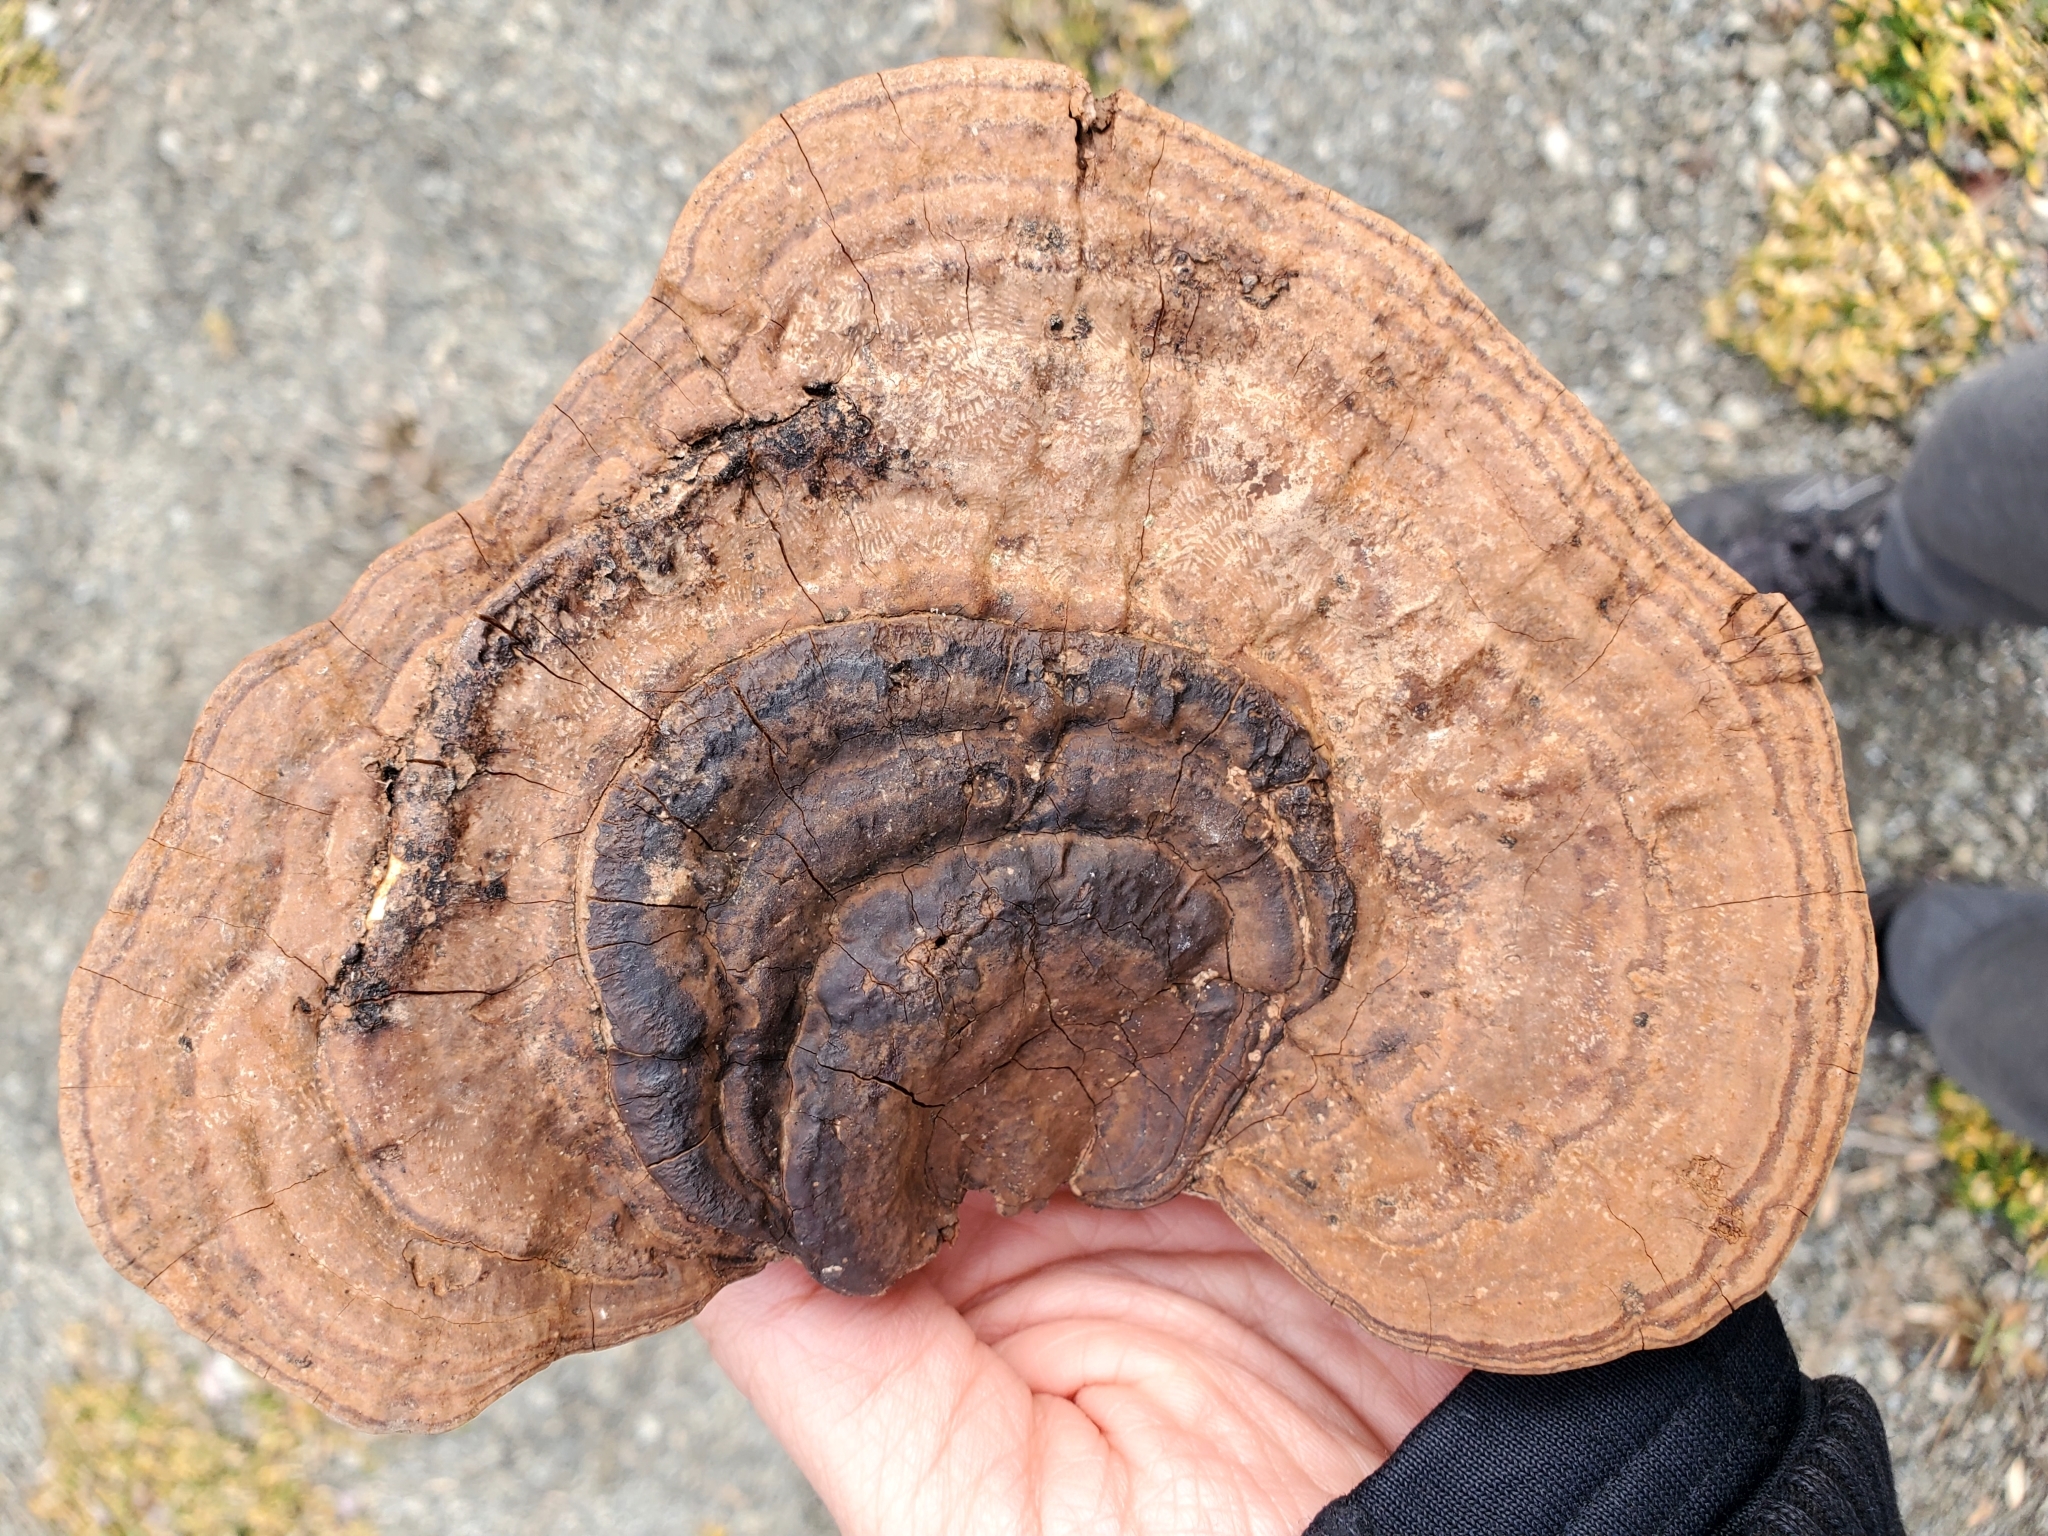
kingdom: Fungi
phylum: Basidiomycota
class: Agaricomycetes
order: Polyporales
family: Polyporaceae
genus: Ganoderma
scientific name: Ganoderma lobatum
